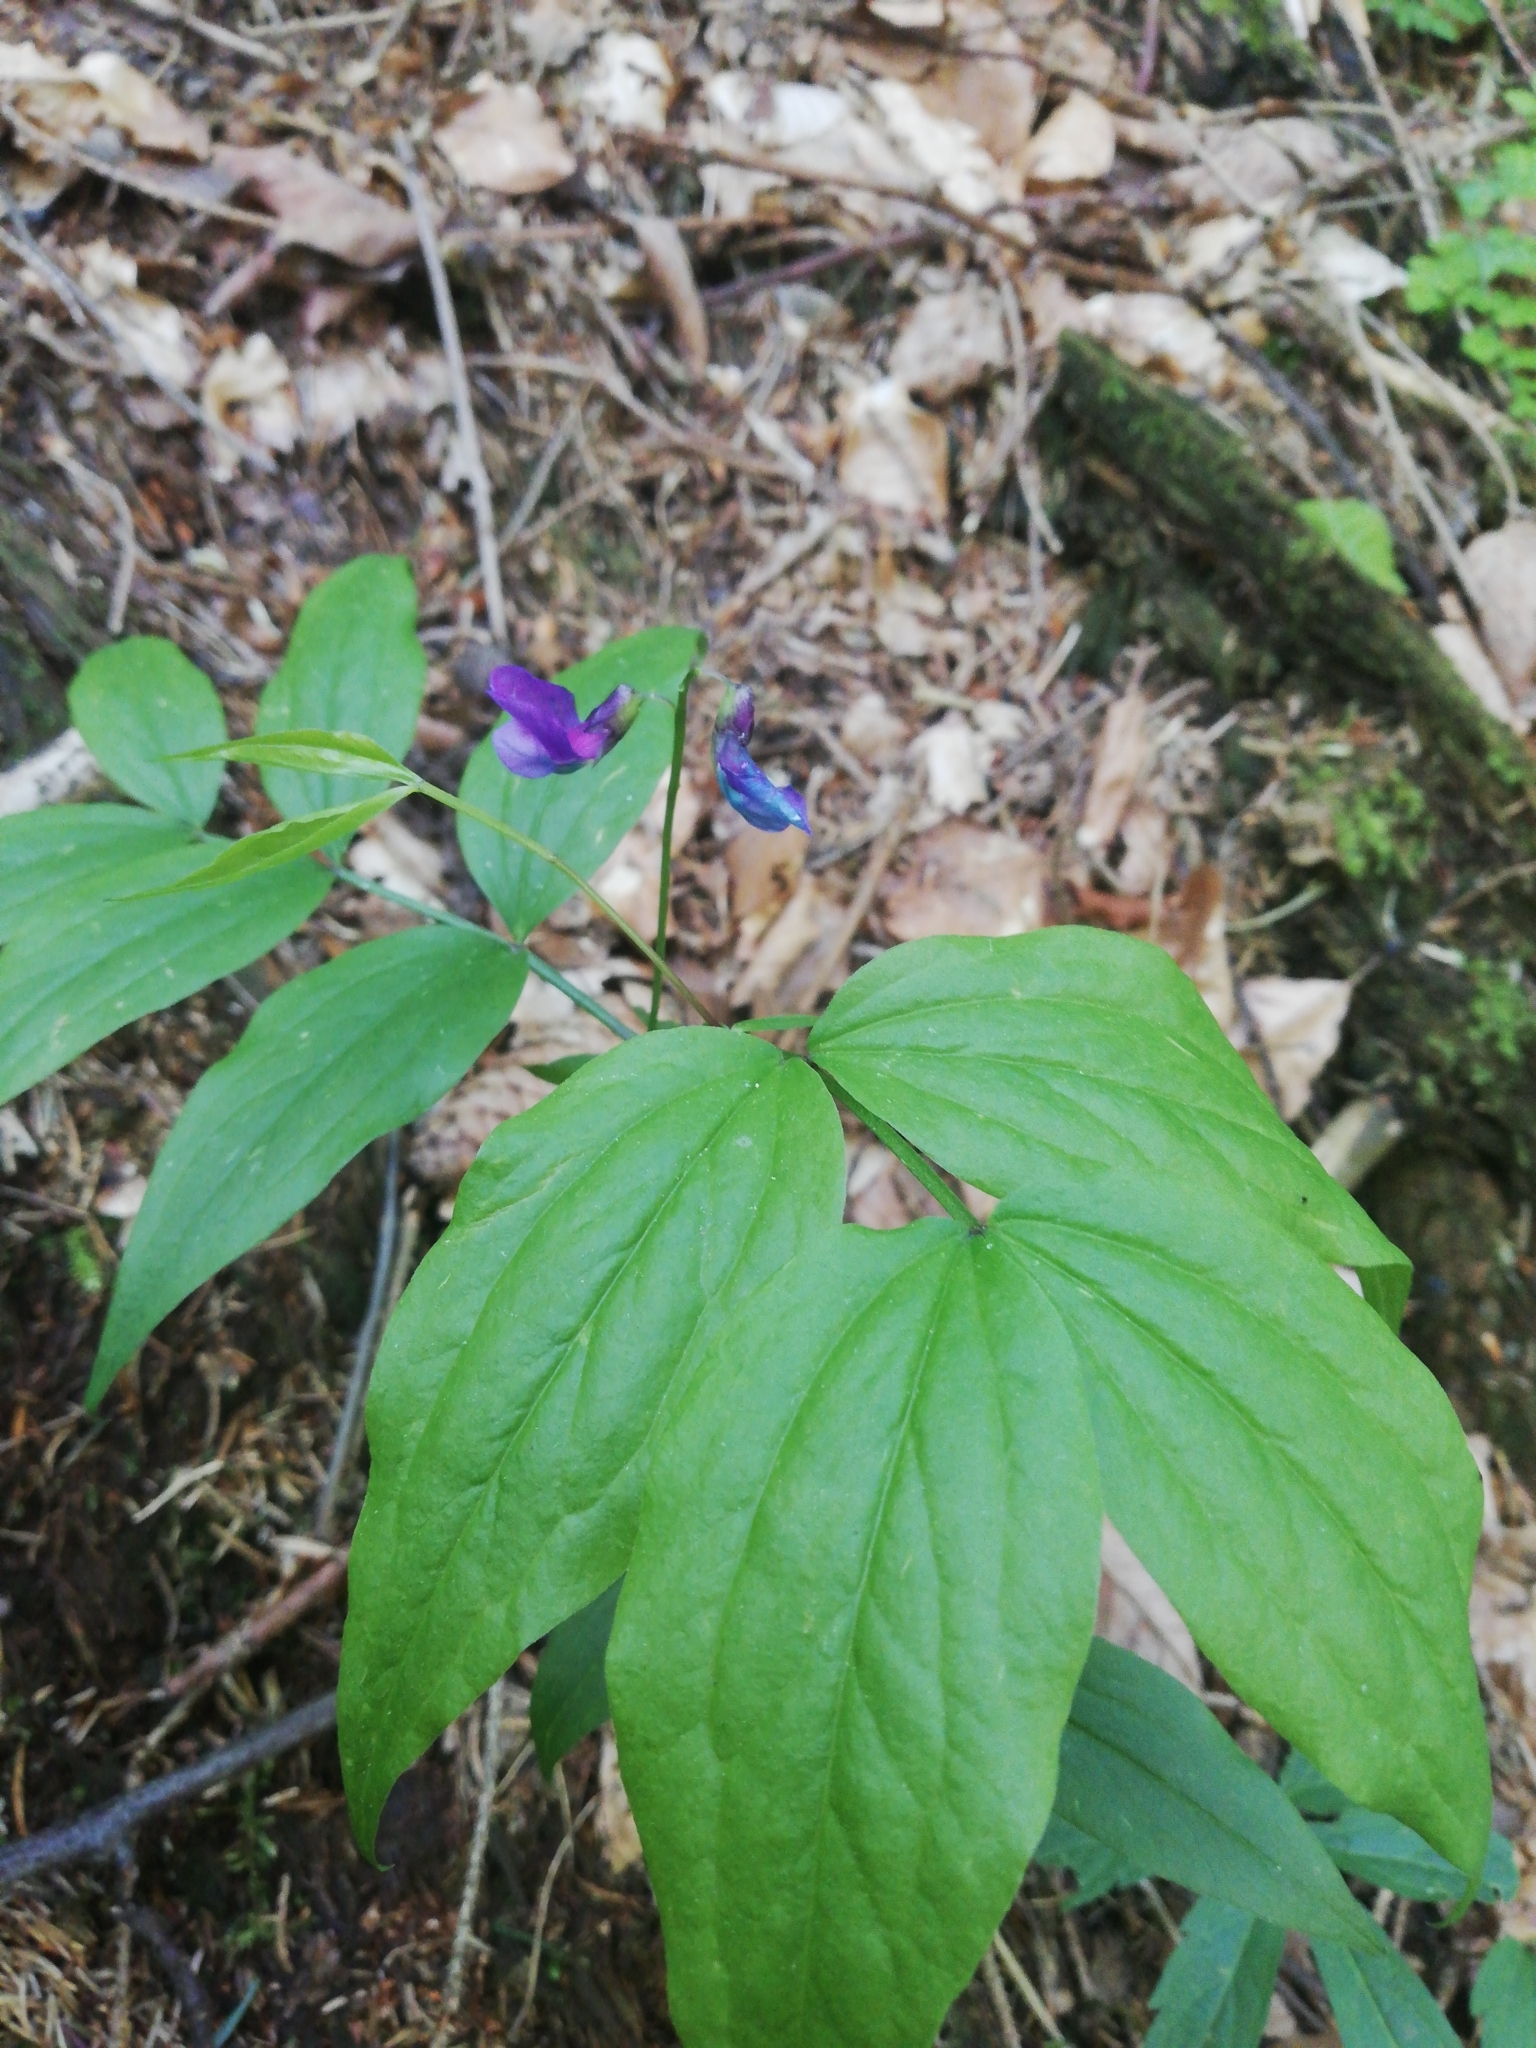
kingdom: Plantae
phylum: Tracheophyta
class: Magnoliopsida
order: Fabales
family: Fabaceae
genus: Lathyrus
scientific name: Lathyrus vernus
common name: Spring pea
